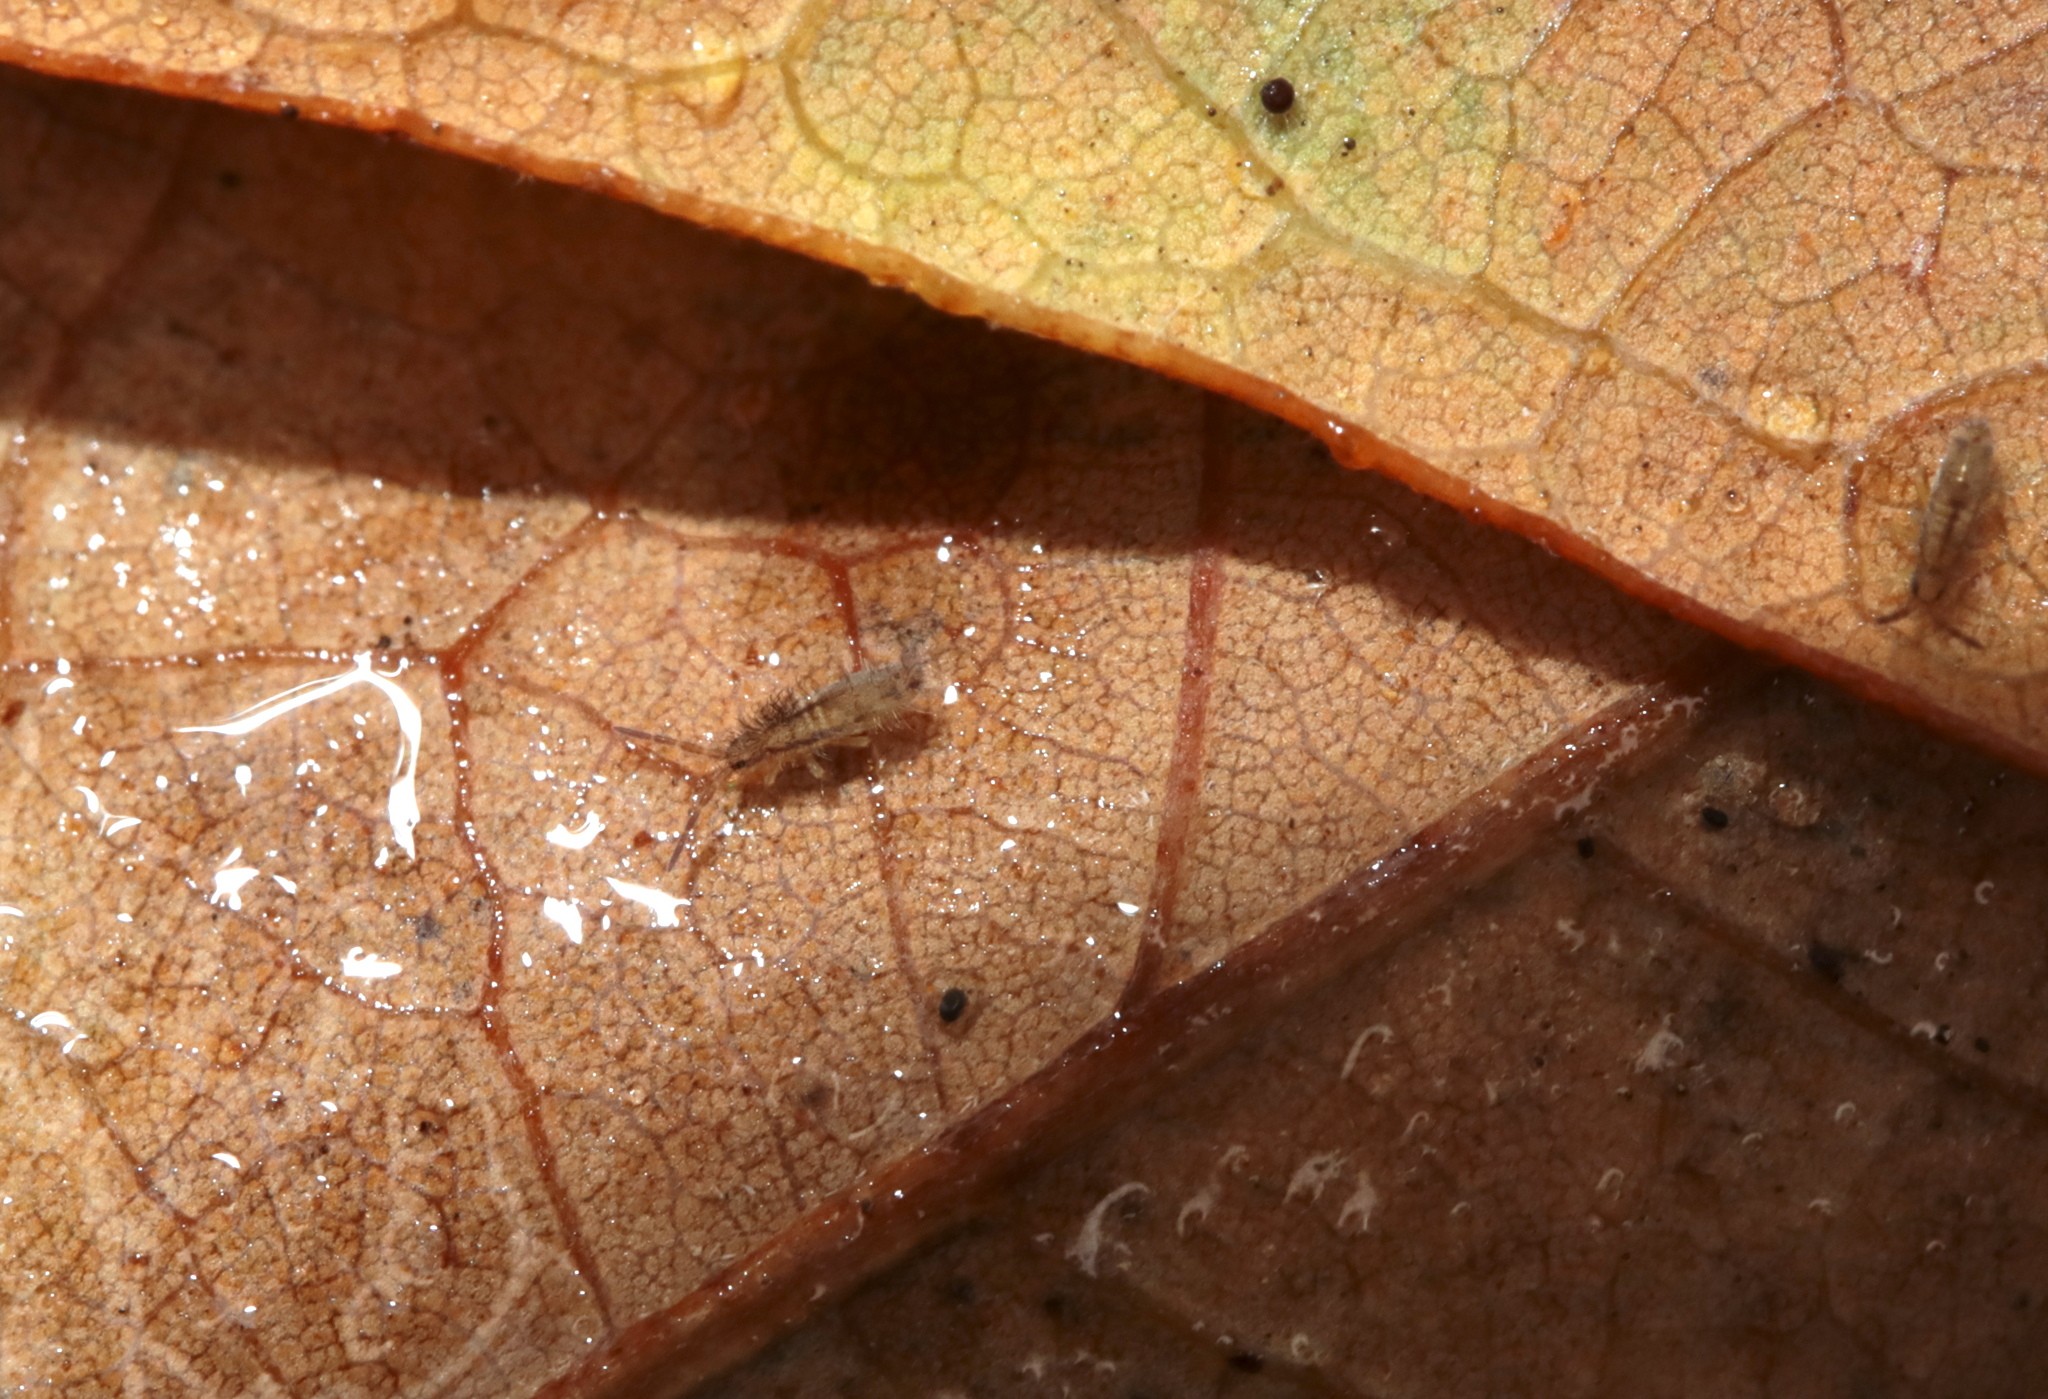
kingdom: Animalia
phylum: Arthropoda
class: Collembola
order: Entomobryomorpha
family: Entomobryidae
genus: Homidia
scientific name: Homidia socia
